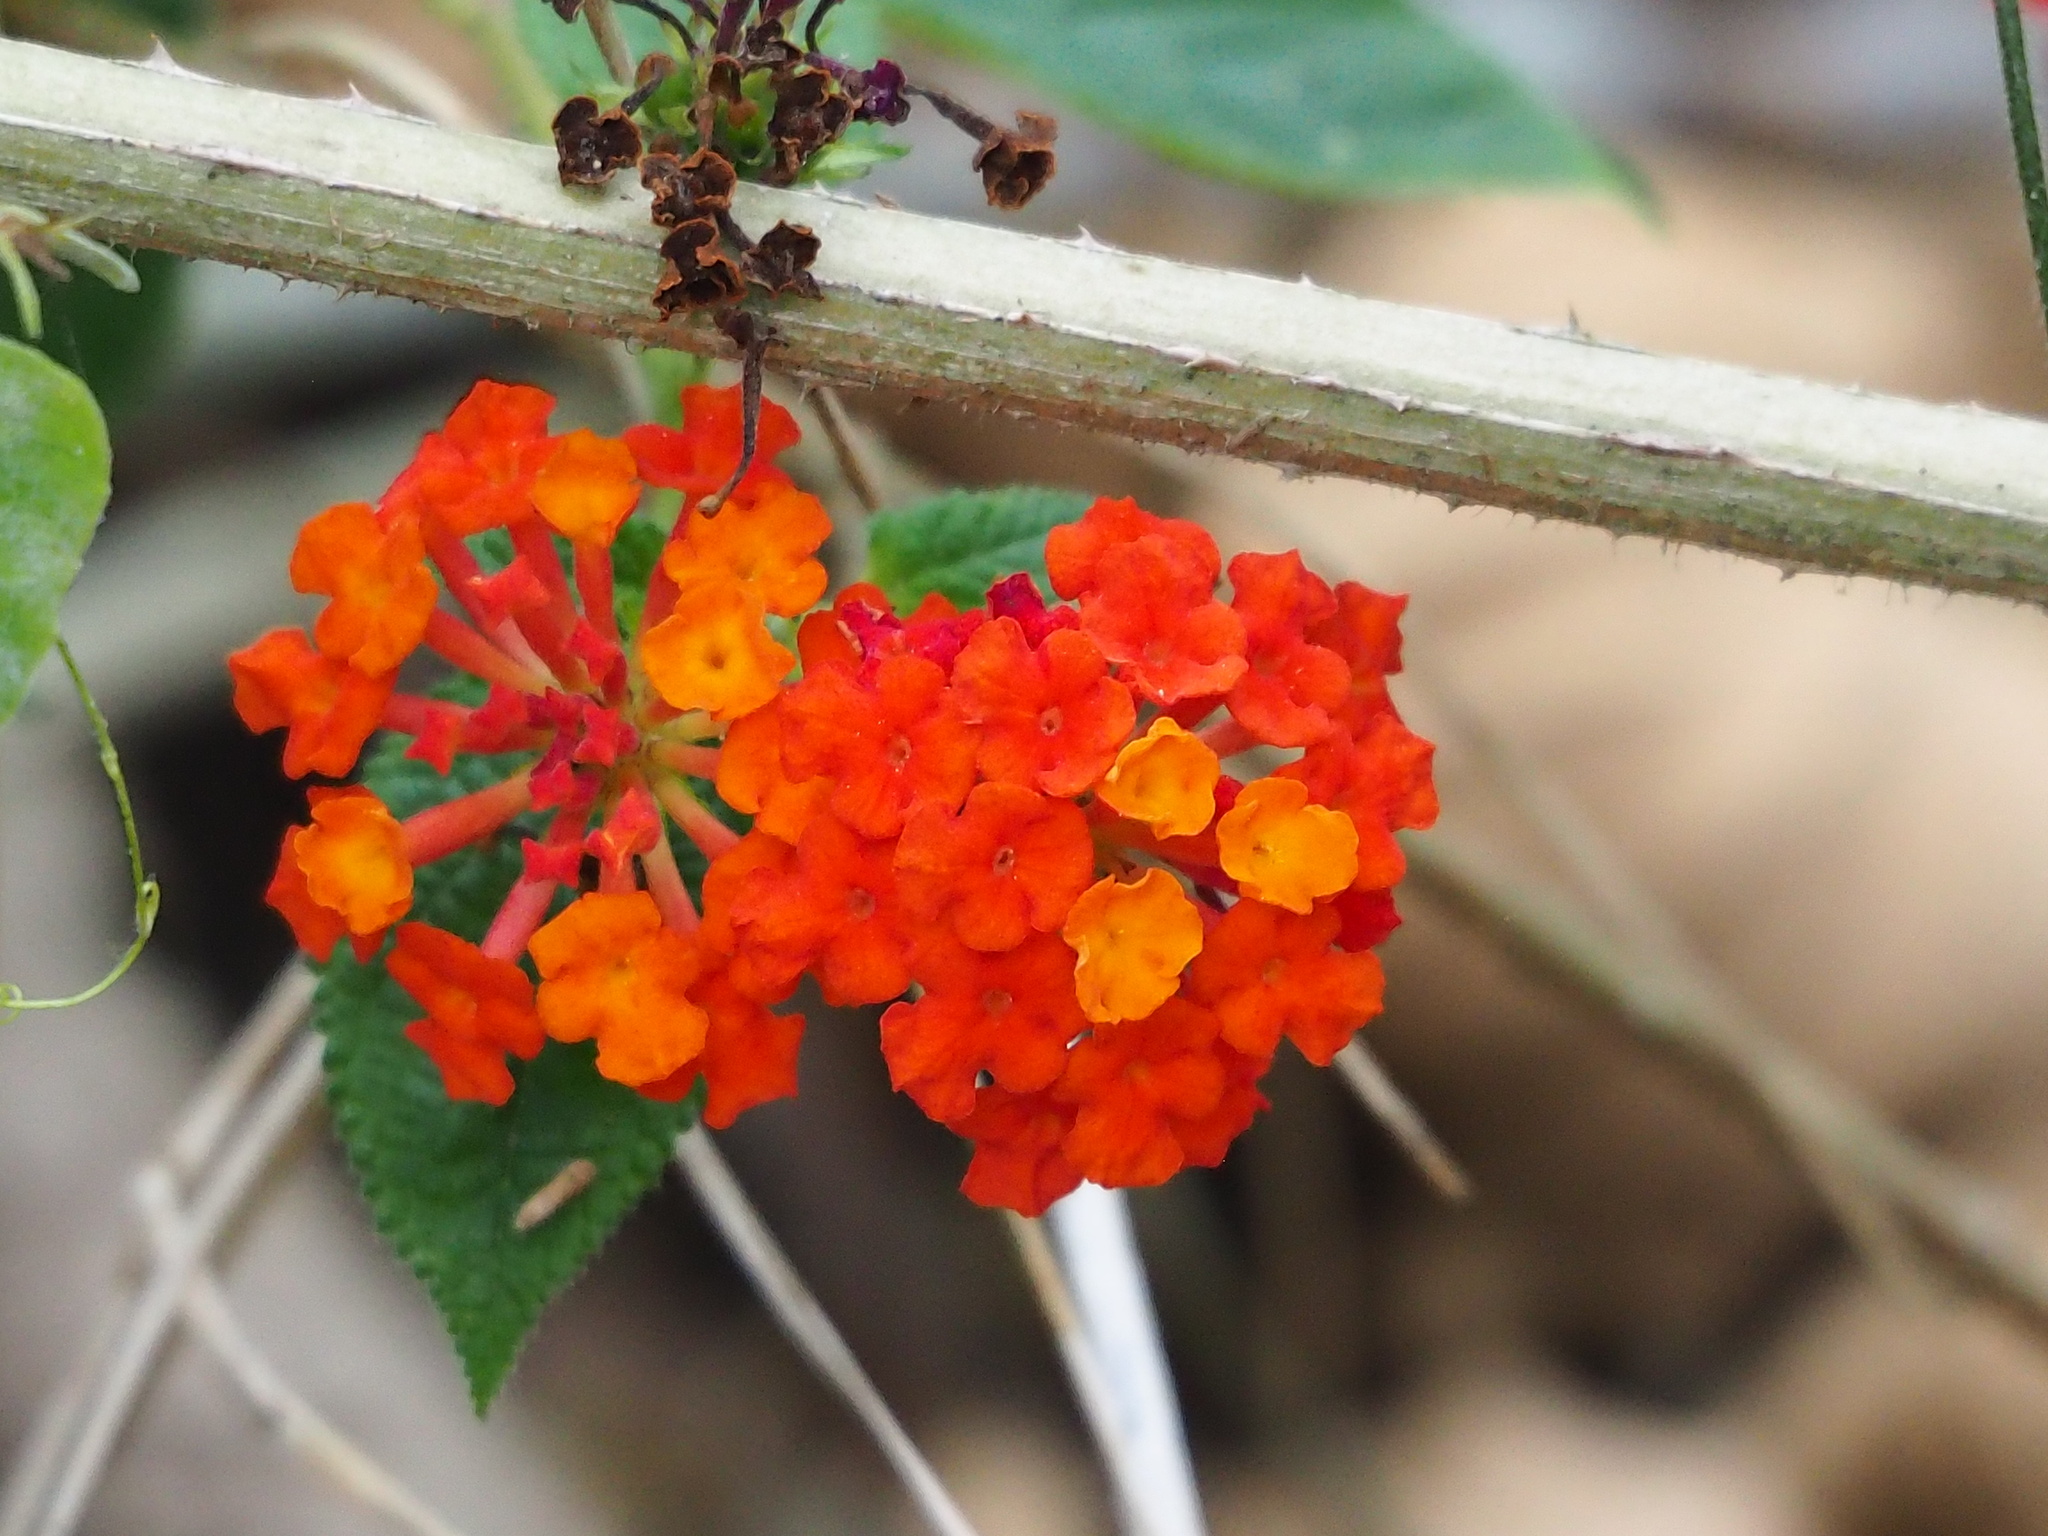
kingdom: Plantae
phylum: Tracheophyta
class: Magnoliopsida
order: Lamiales
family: Verbenaceae
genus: Lantana
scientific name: Lantana camara
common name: Lantana
